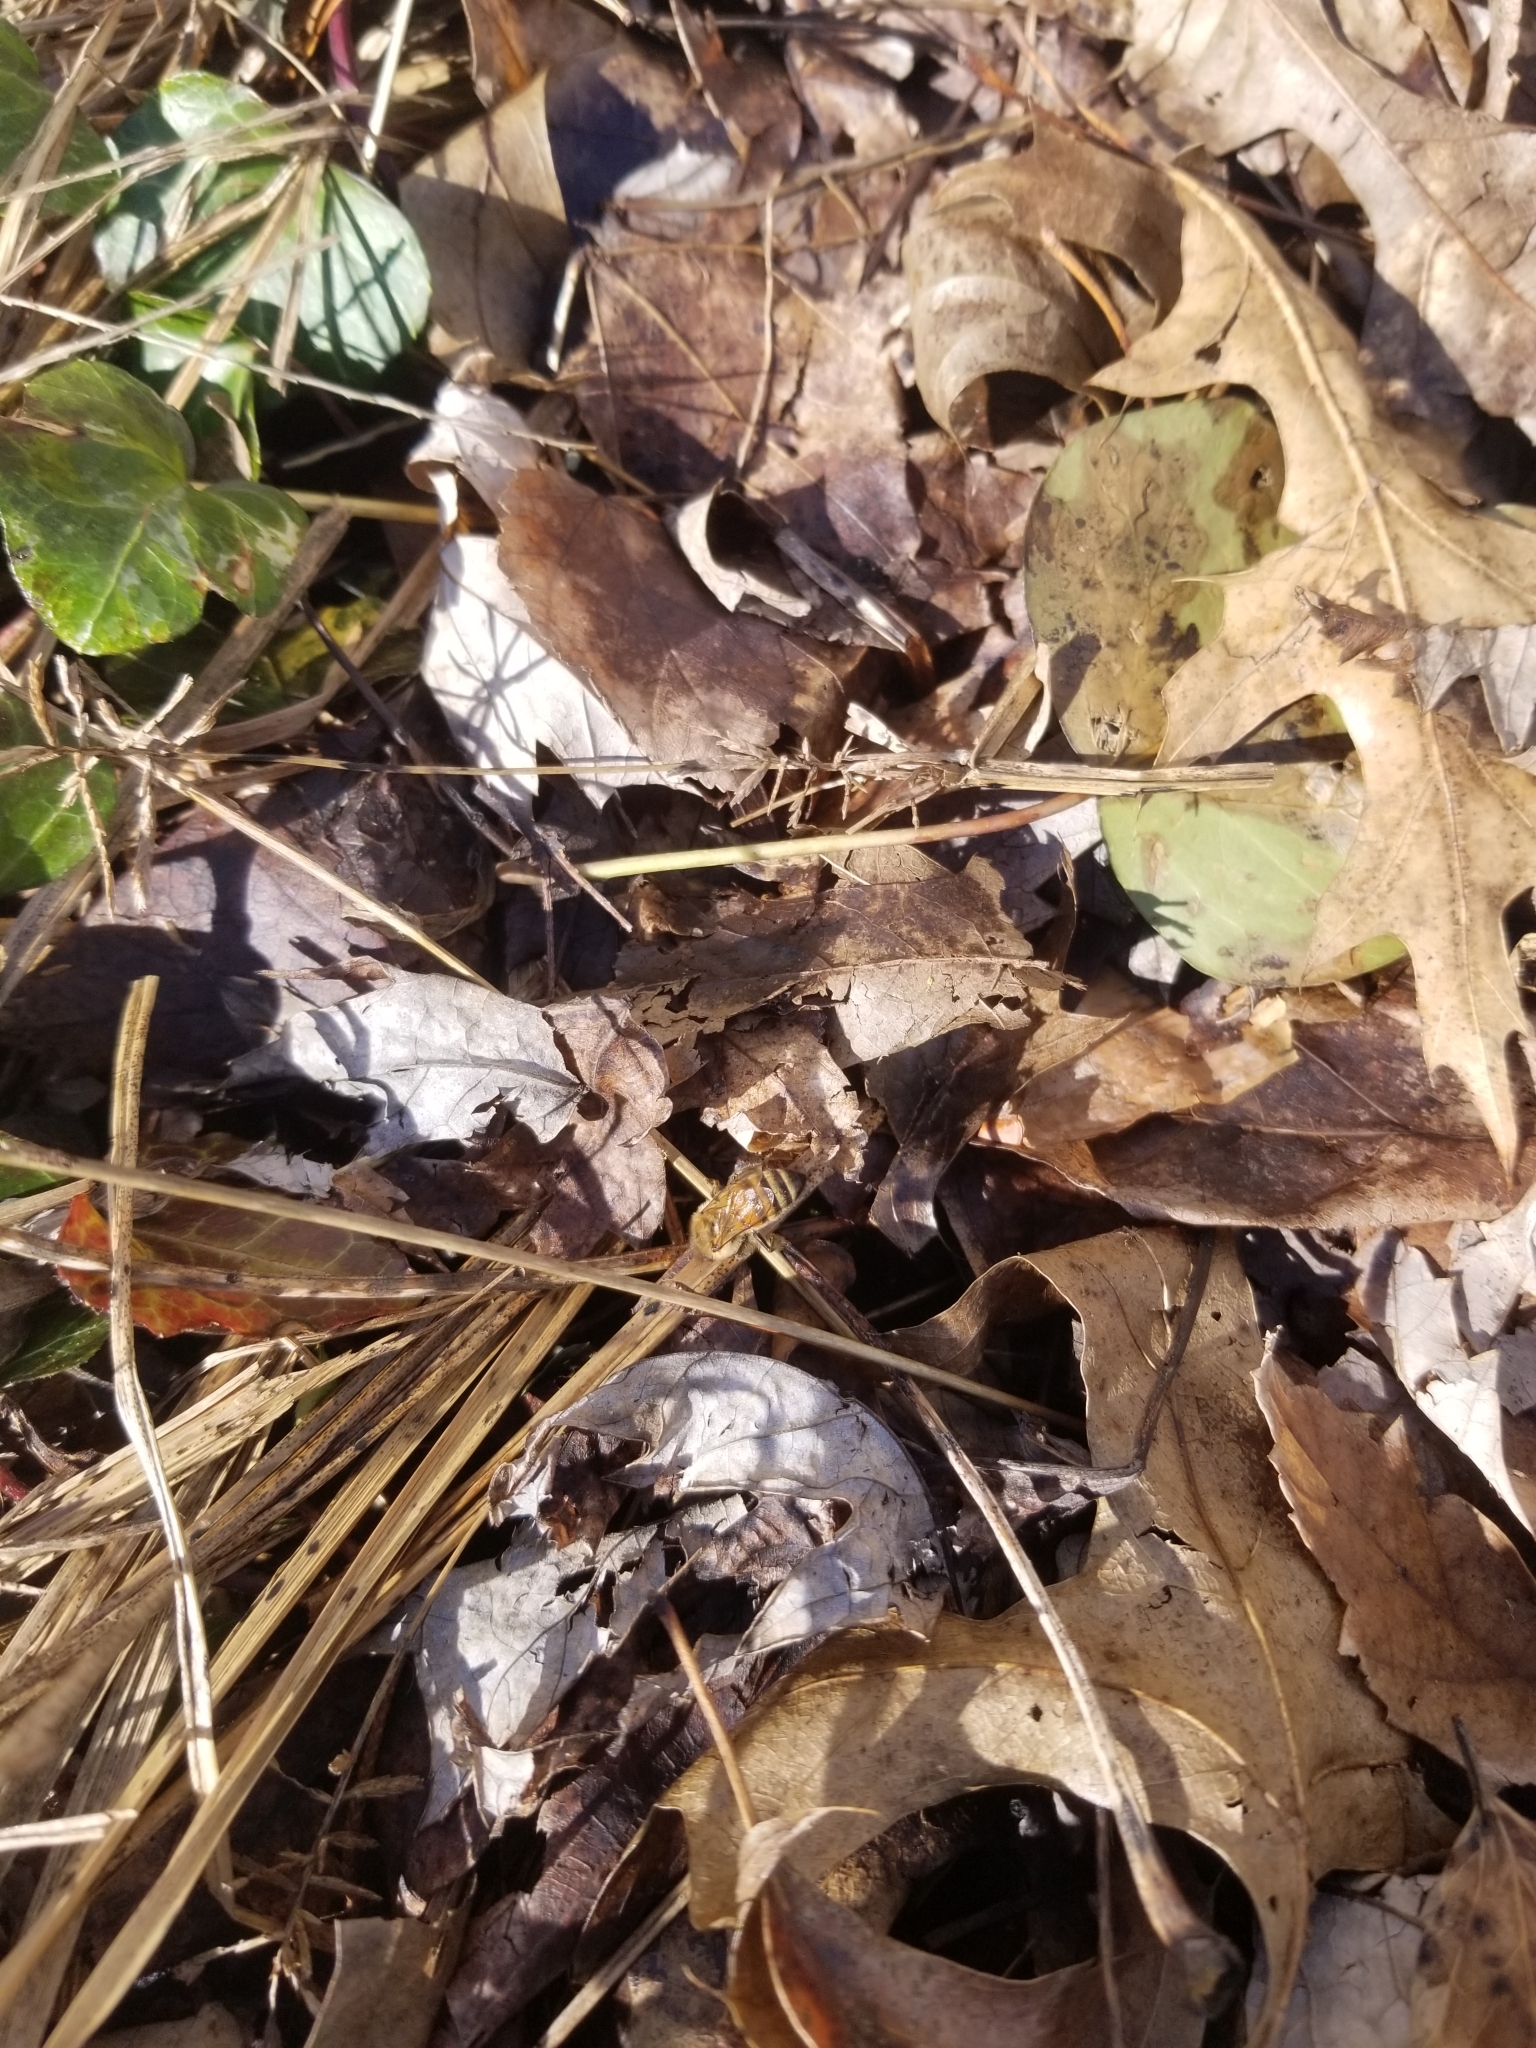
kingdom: Animalia
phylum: Arthropoda
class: Insecta
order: Hymenoptera
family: Apidae
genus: Apis
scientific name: Apis mellifera
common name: Honey bee
